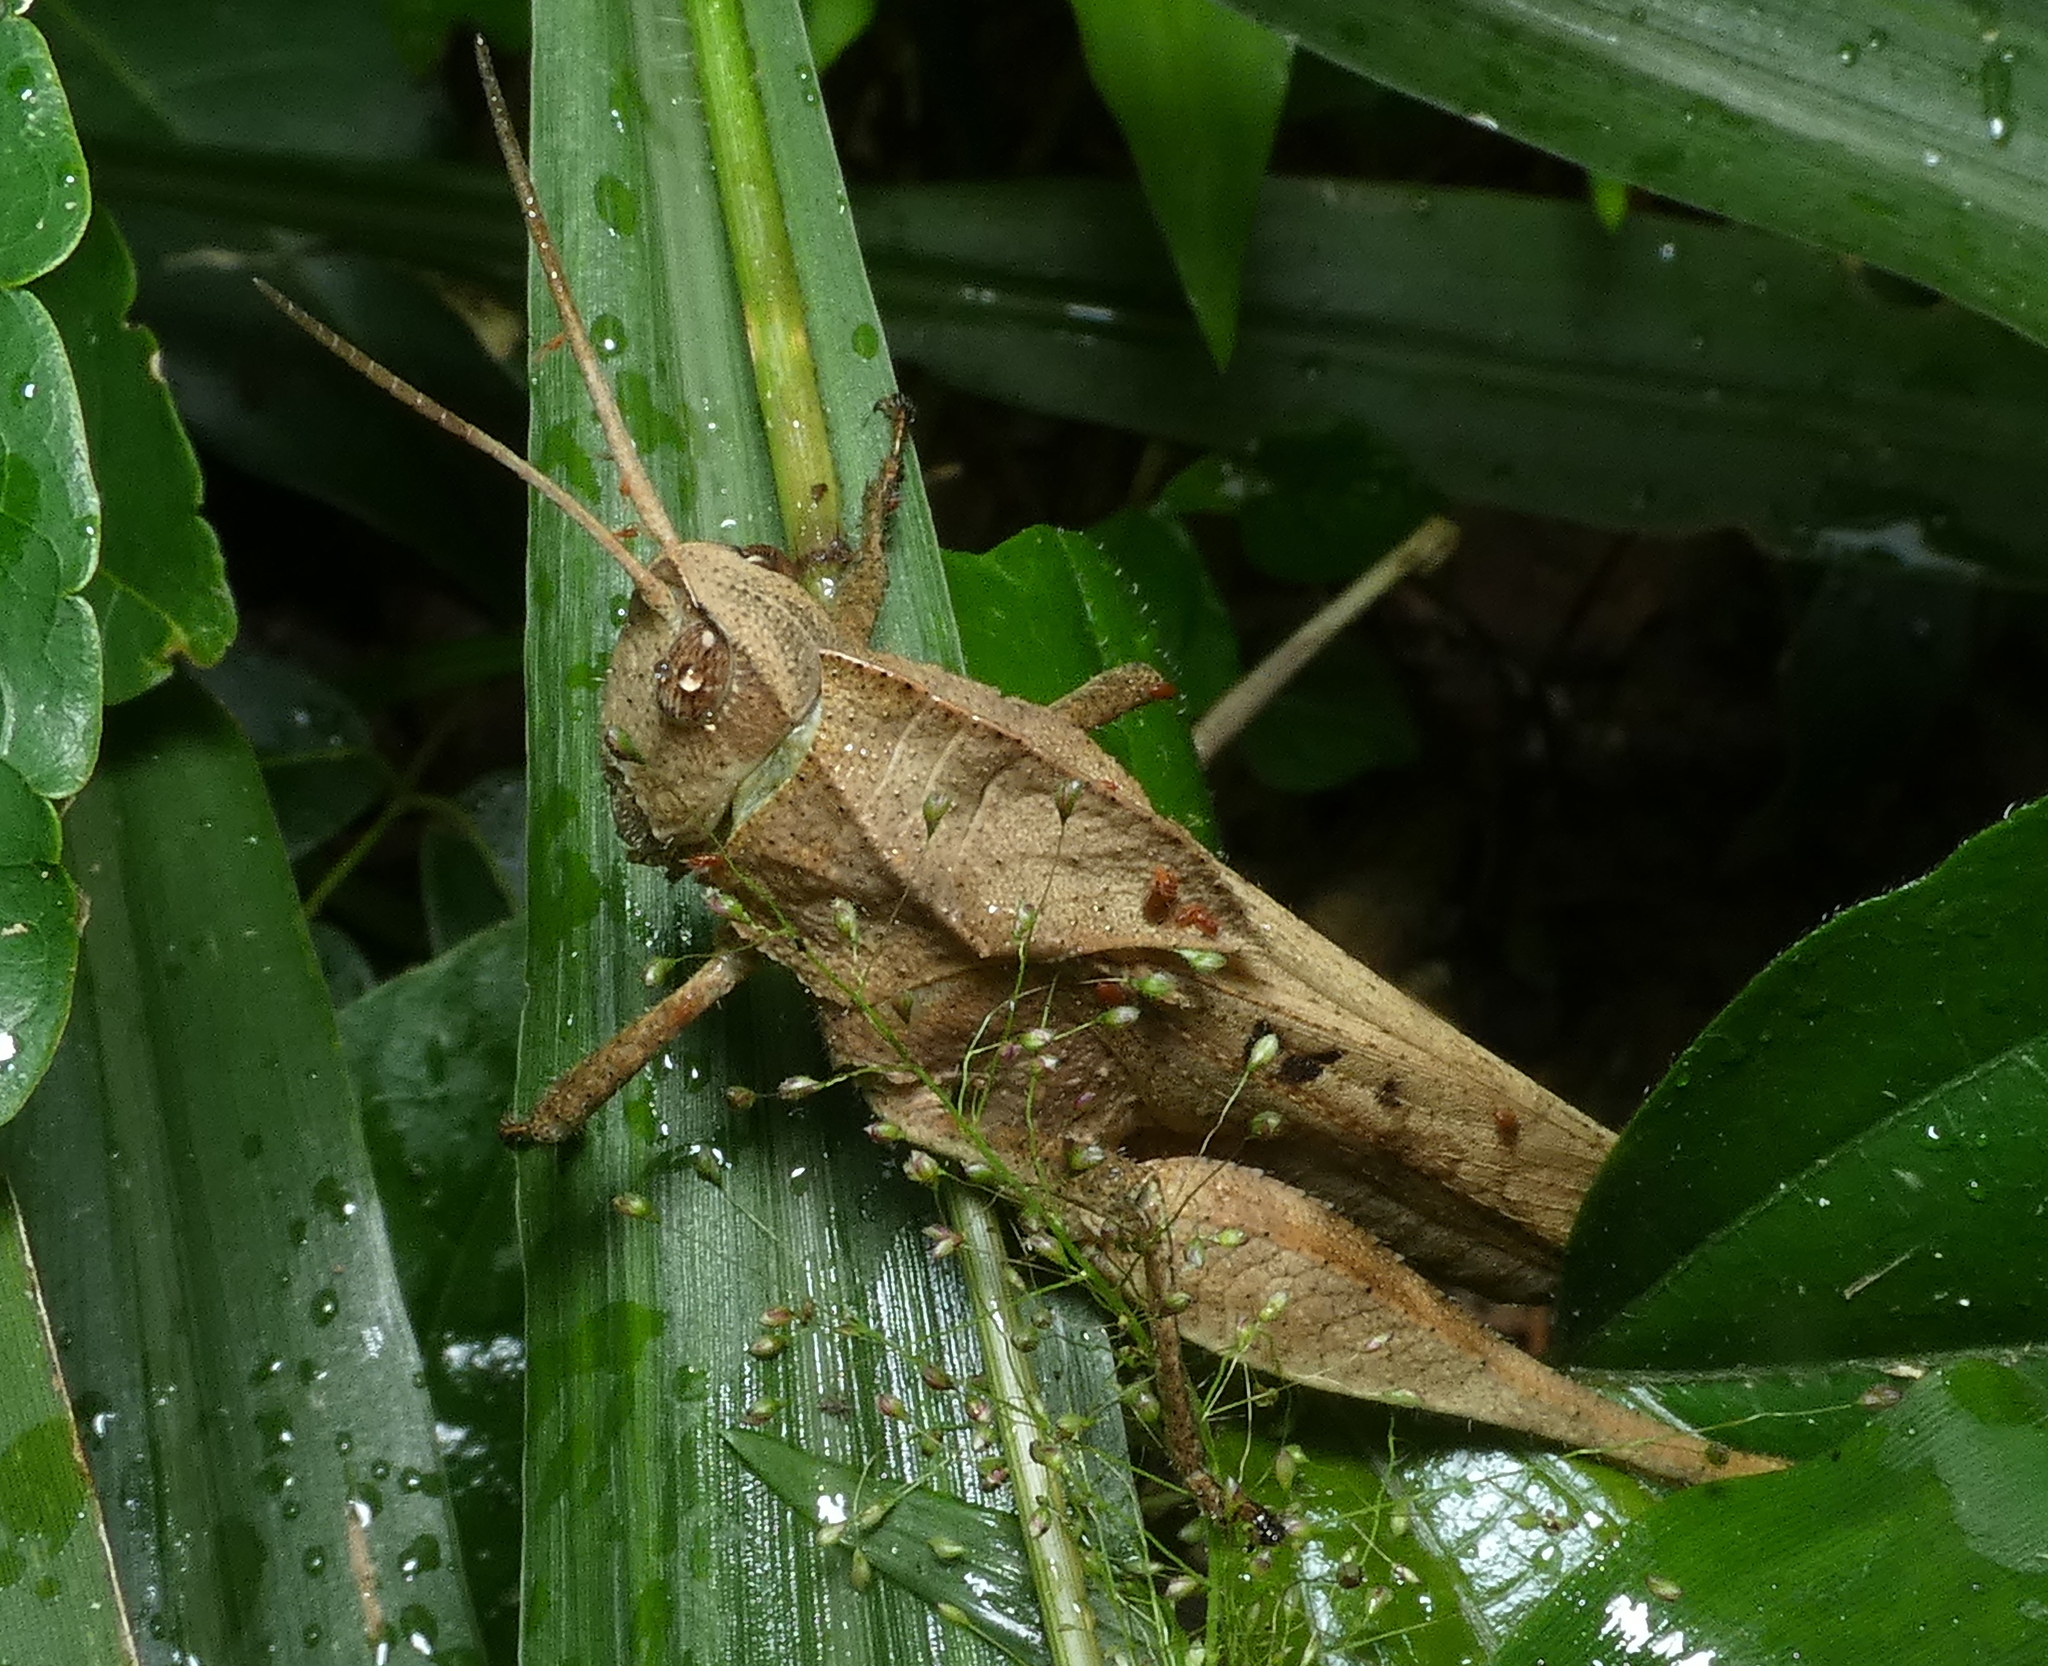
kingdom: Animalia
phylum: Arthropoda
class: Insecta
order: Orthoptera
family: Romaleidae
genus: Xyleus
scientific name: Xyleus discoideus
